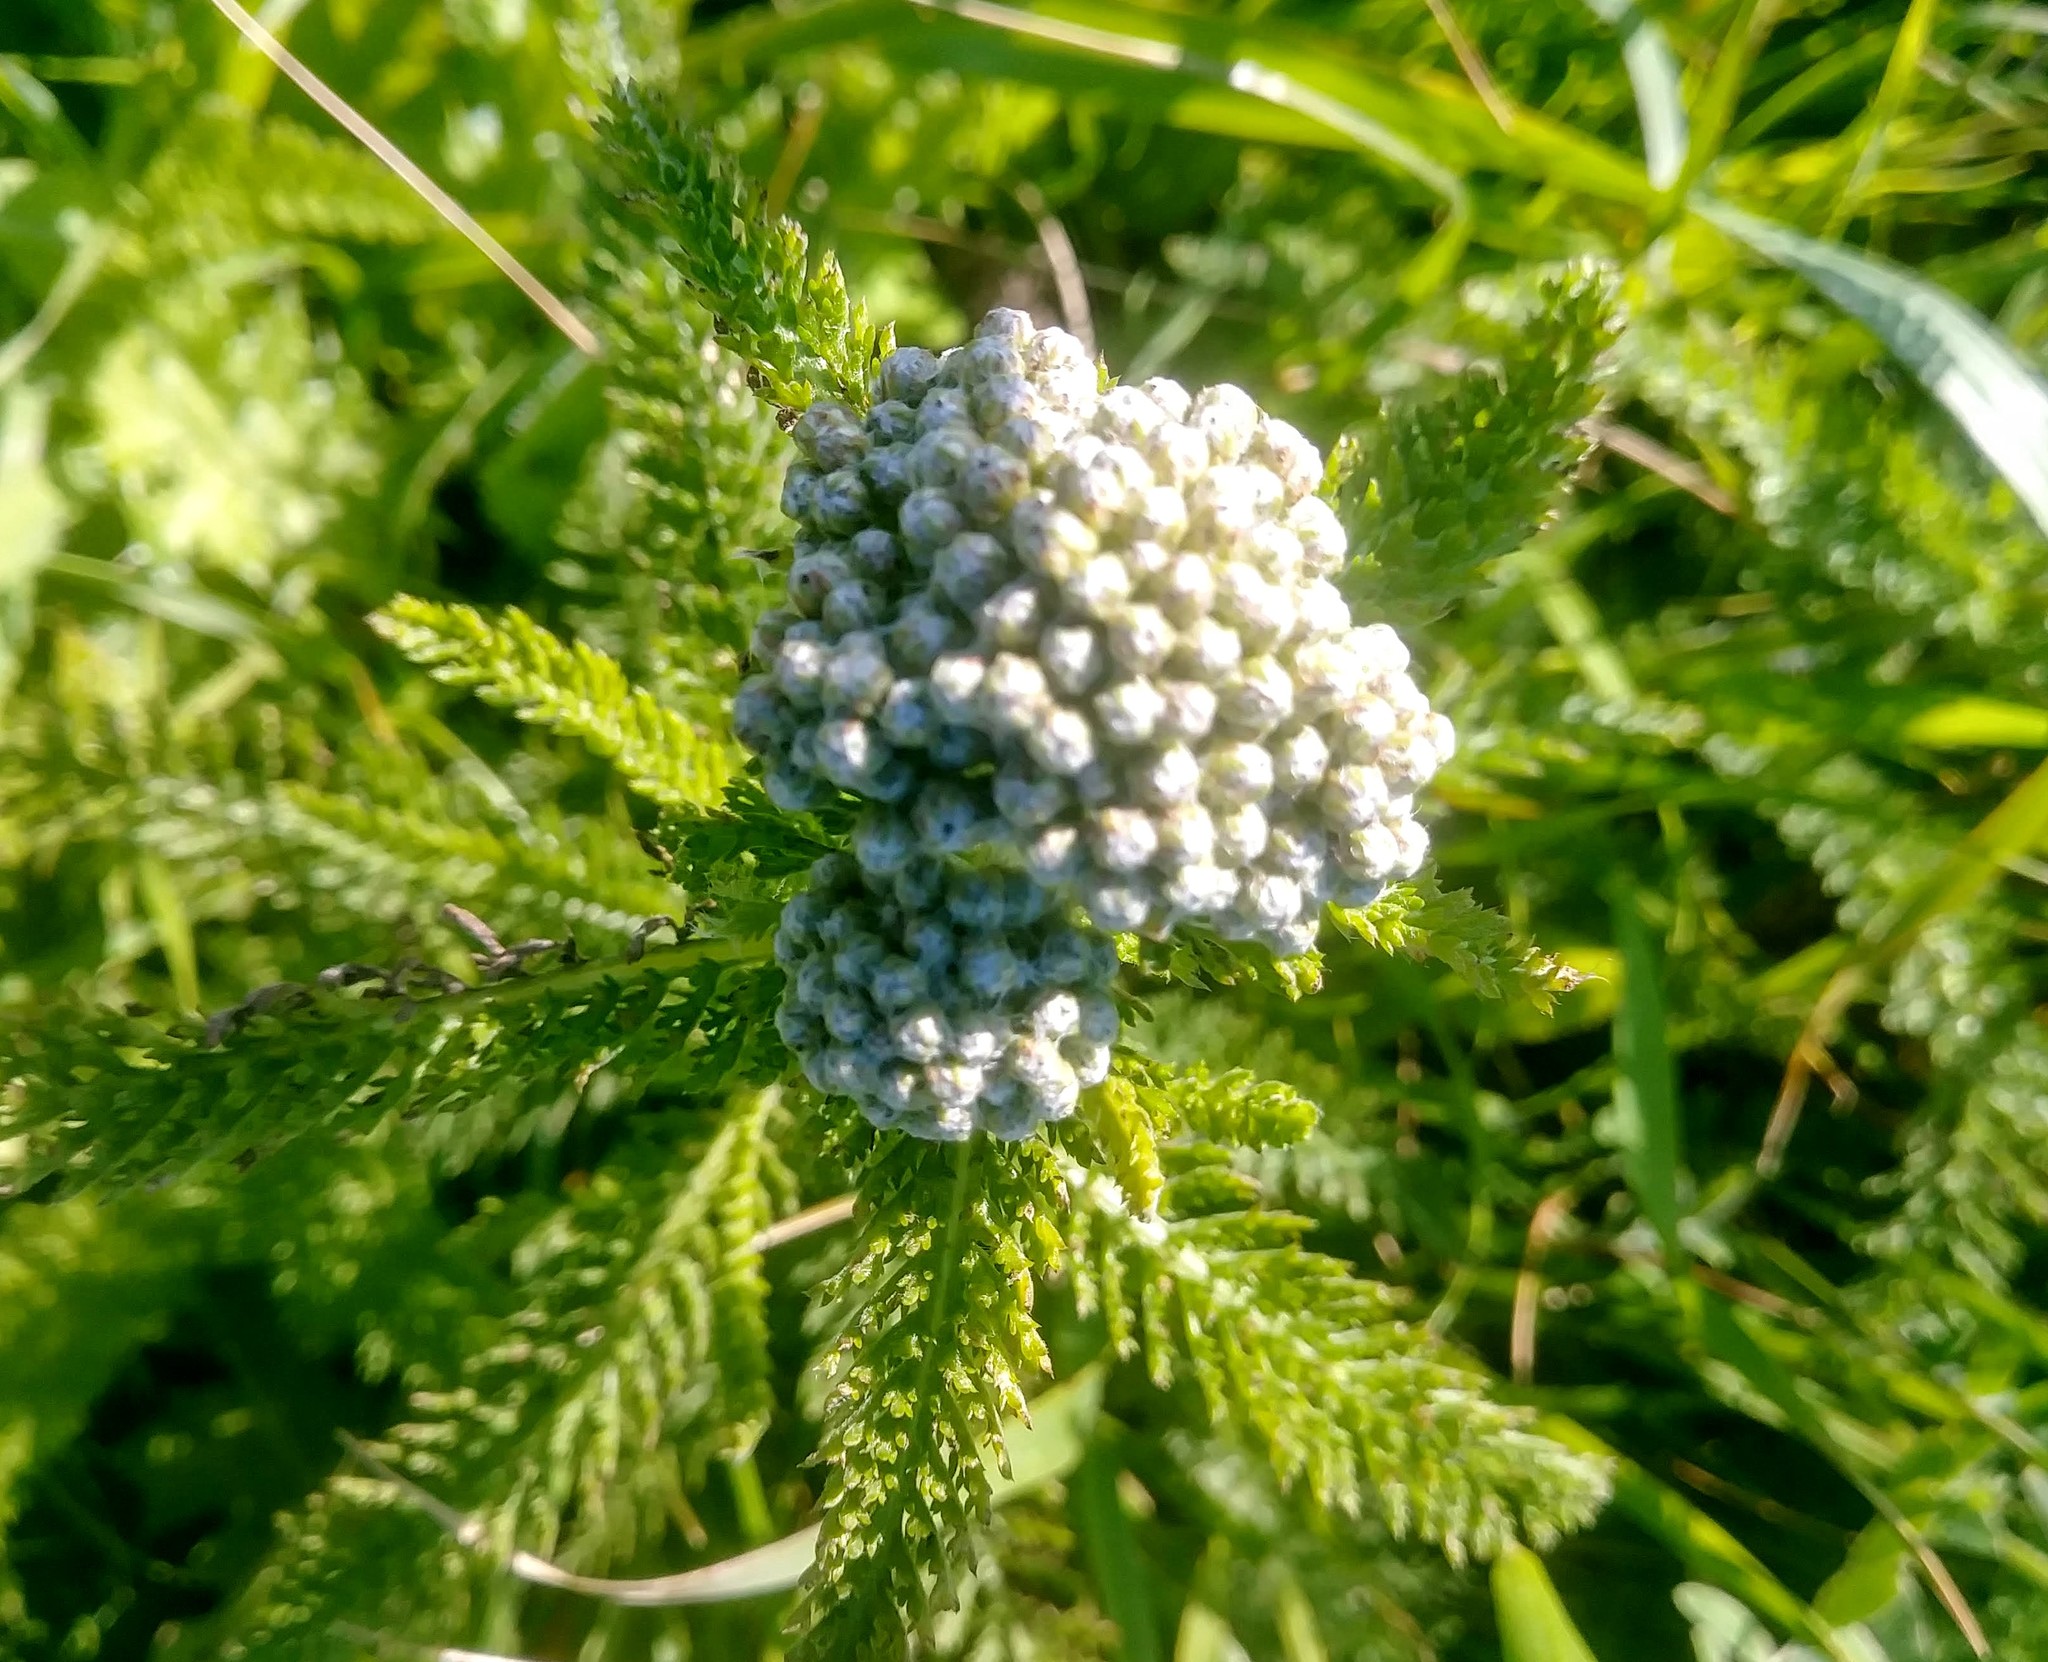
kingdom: Plantae
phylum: Tracheophyta
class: Magnoliopsida
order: Asterales
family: Asteraceae
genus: Achillea
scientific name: Achillea millefolium
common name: Yarrow
